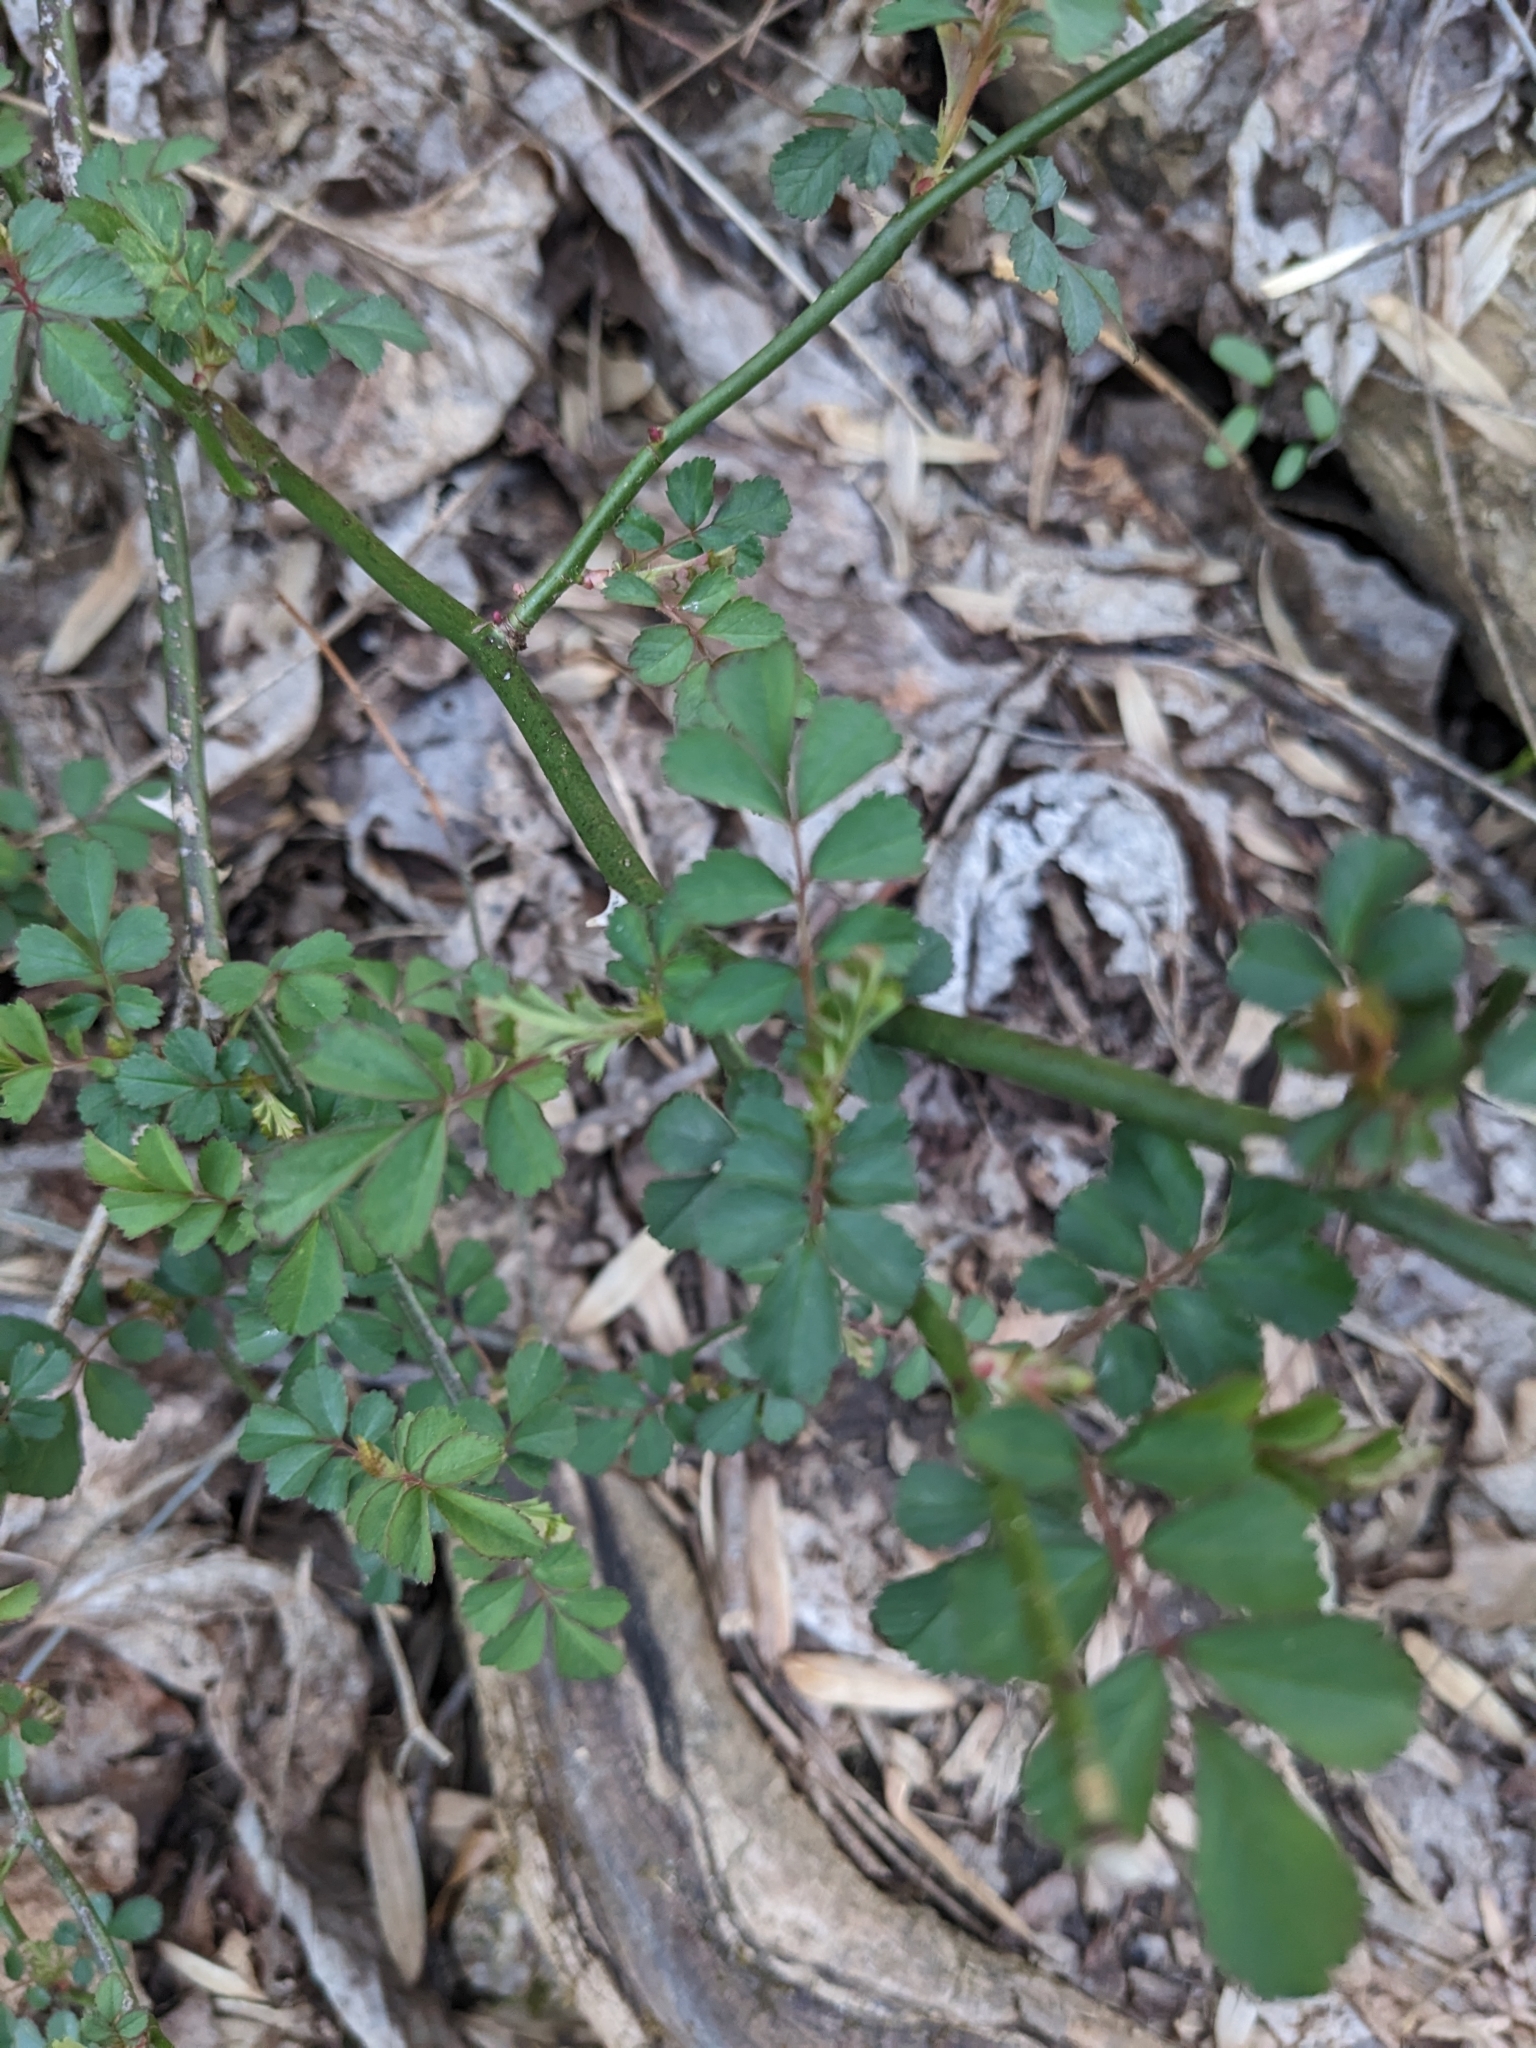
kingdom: Plantae
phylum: Tracheophyta
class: Magnoliopsida
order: Rosales
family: Rosaceae
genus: Rosa
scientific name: Rosa multiflora
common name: Multiflora rose
